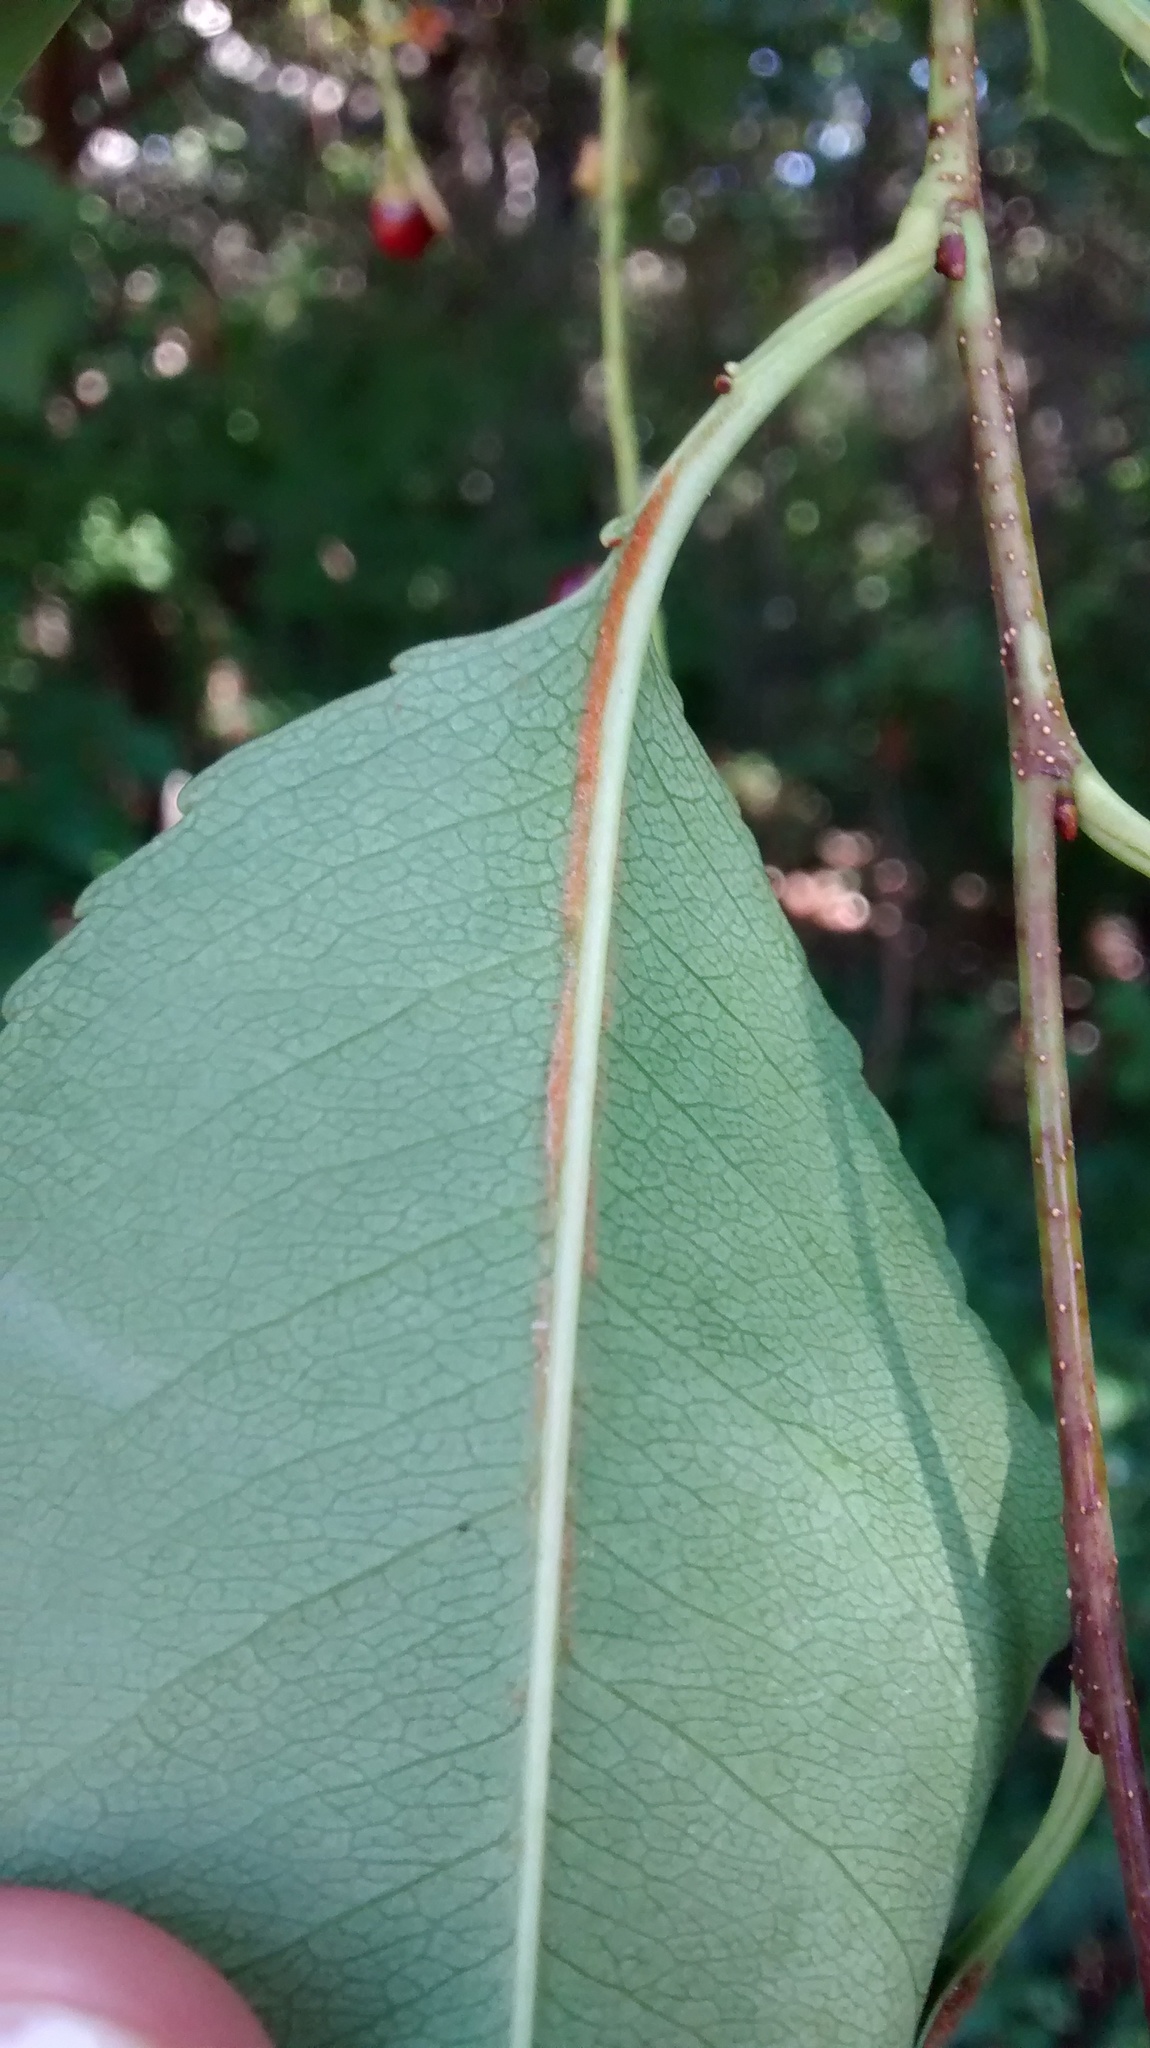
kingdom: Plantae
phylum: Tracheophyta
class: Magnoliopsida
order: Rosales
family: Rosaceae
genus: Prunus
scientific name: Prunus serotina
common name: Black cherry
